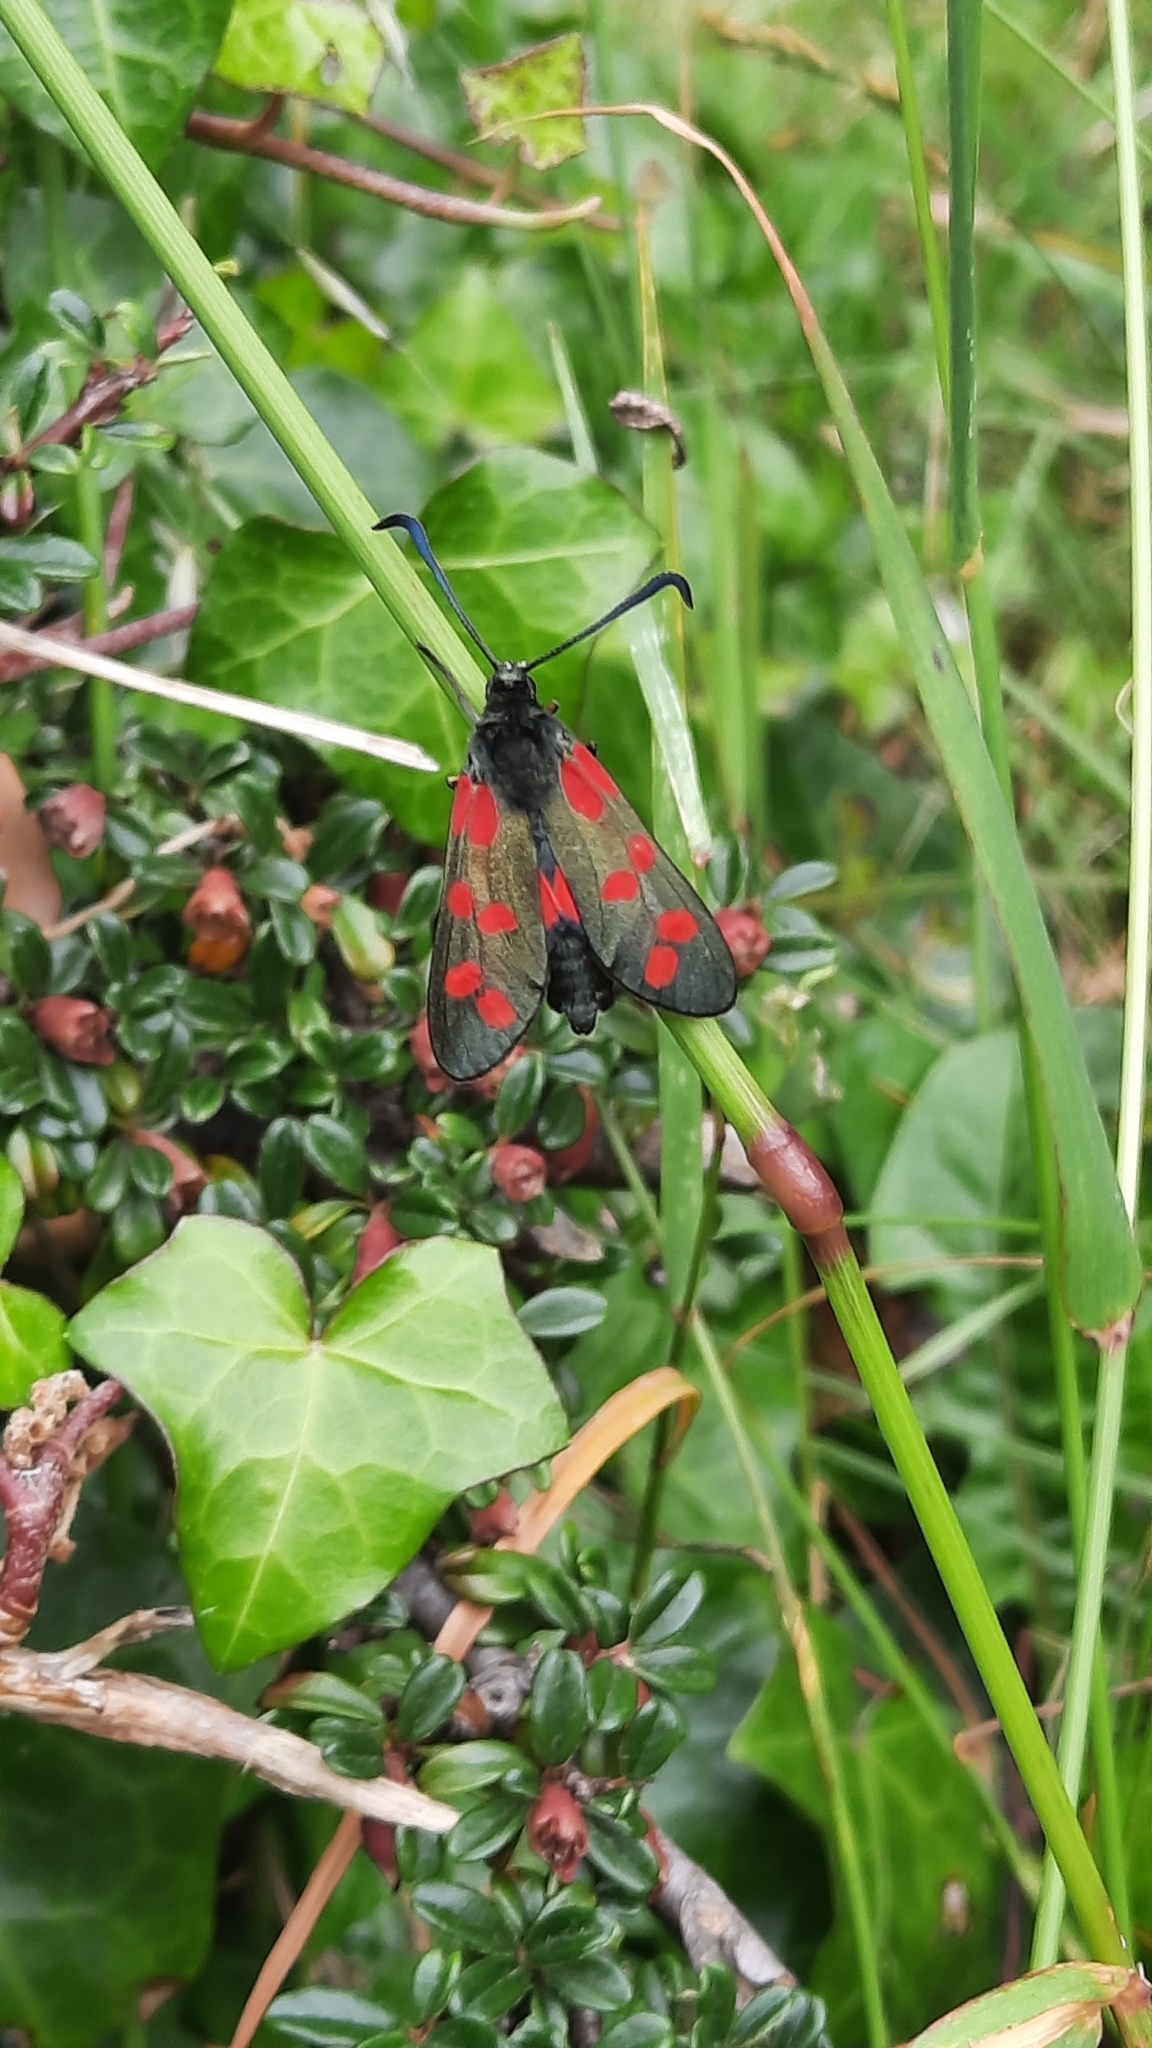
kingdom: Animalia
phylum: Arthropoda
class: Insecta
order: Lepidoptera
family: Zygaenidae
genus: Zygaena
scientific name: Zygaena filipendulae
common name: Six-spot burnet
